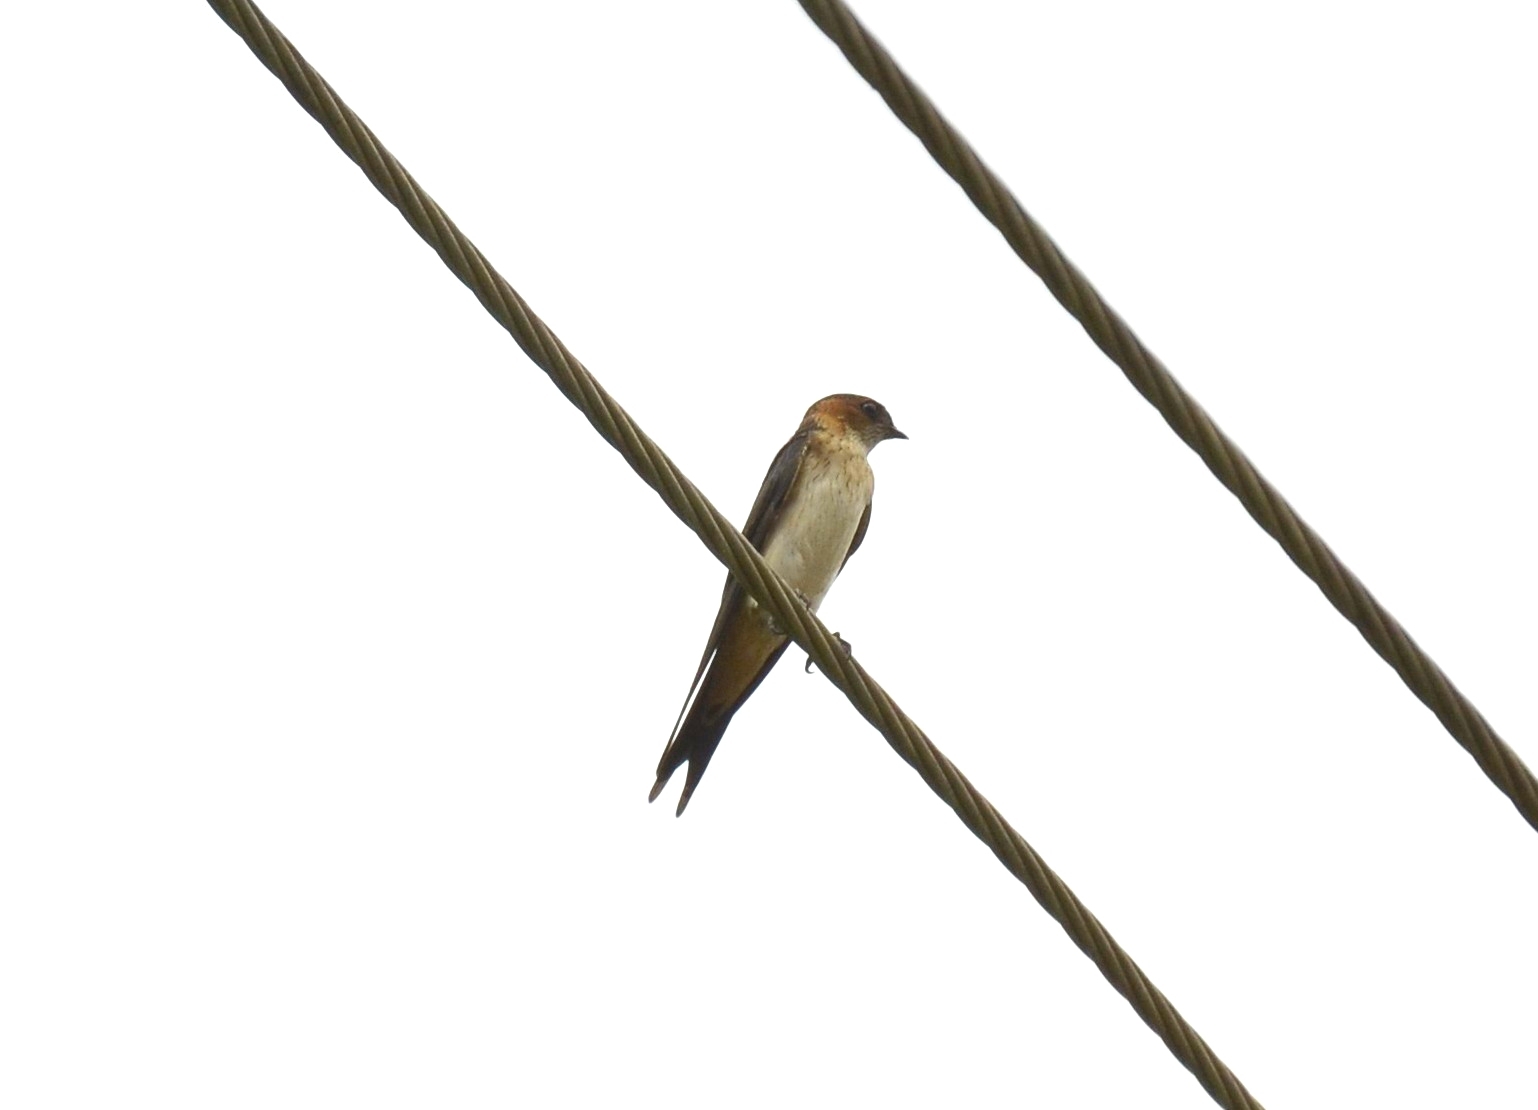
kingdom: Animalia
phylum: Chordata
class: Aves
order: Passeriformes
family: Hirundinidae
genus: Cecropis
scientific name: Cecropis daurica
